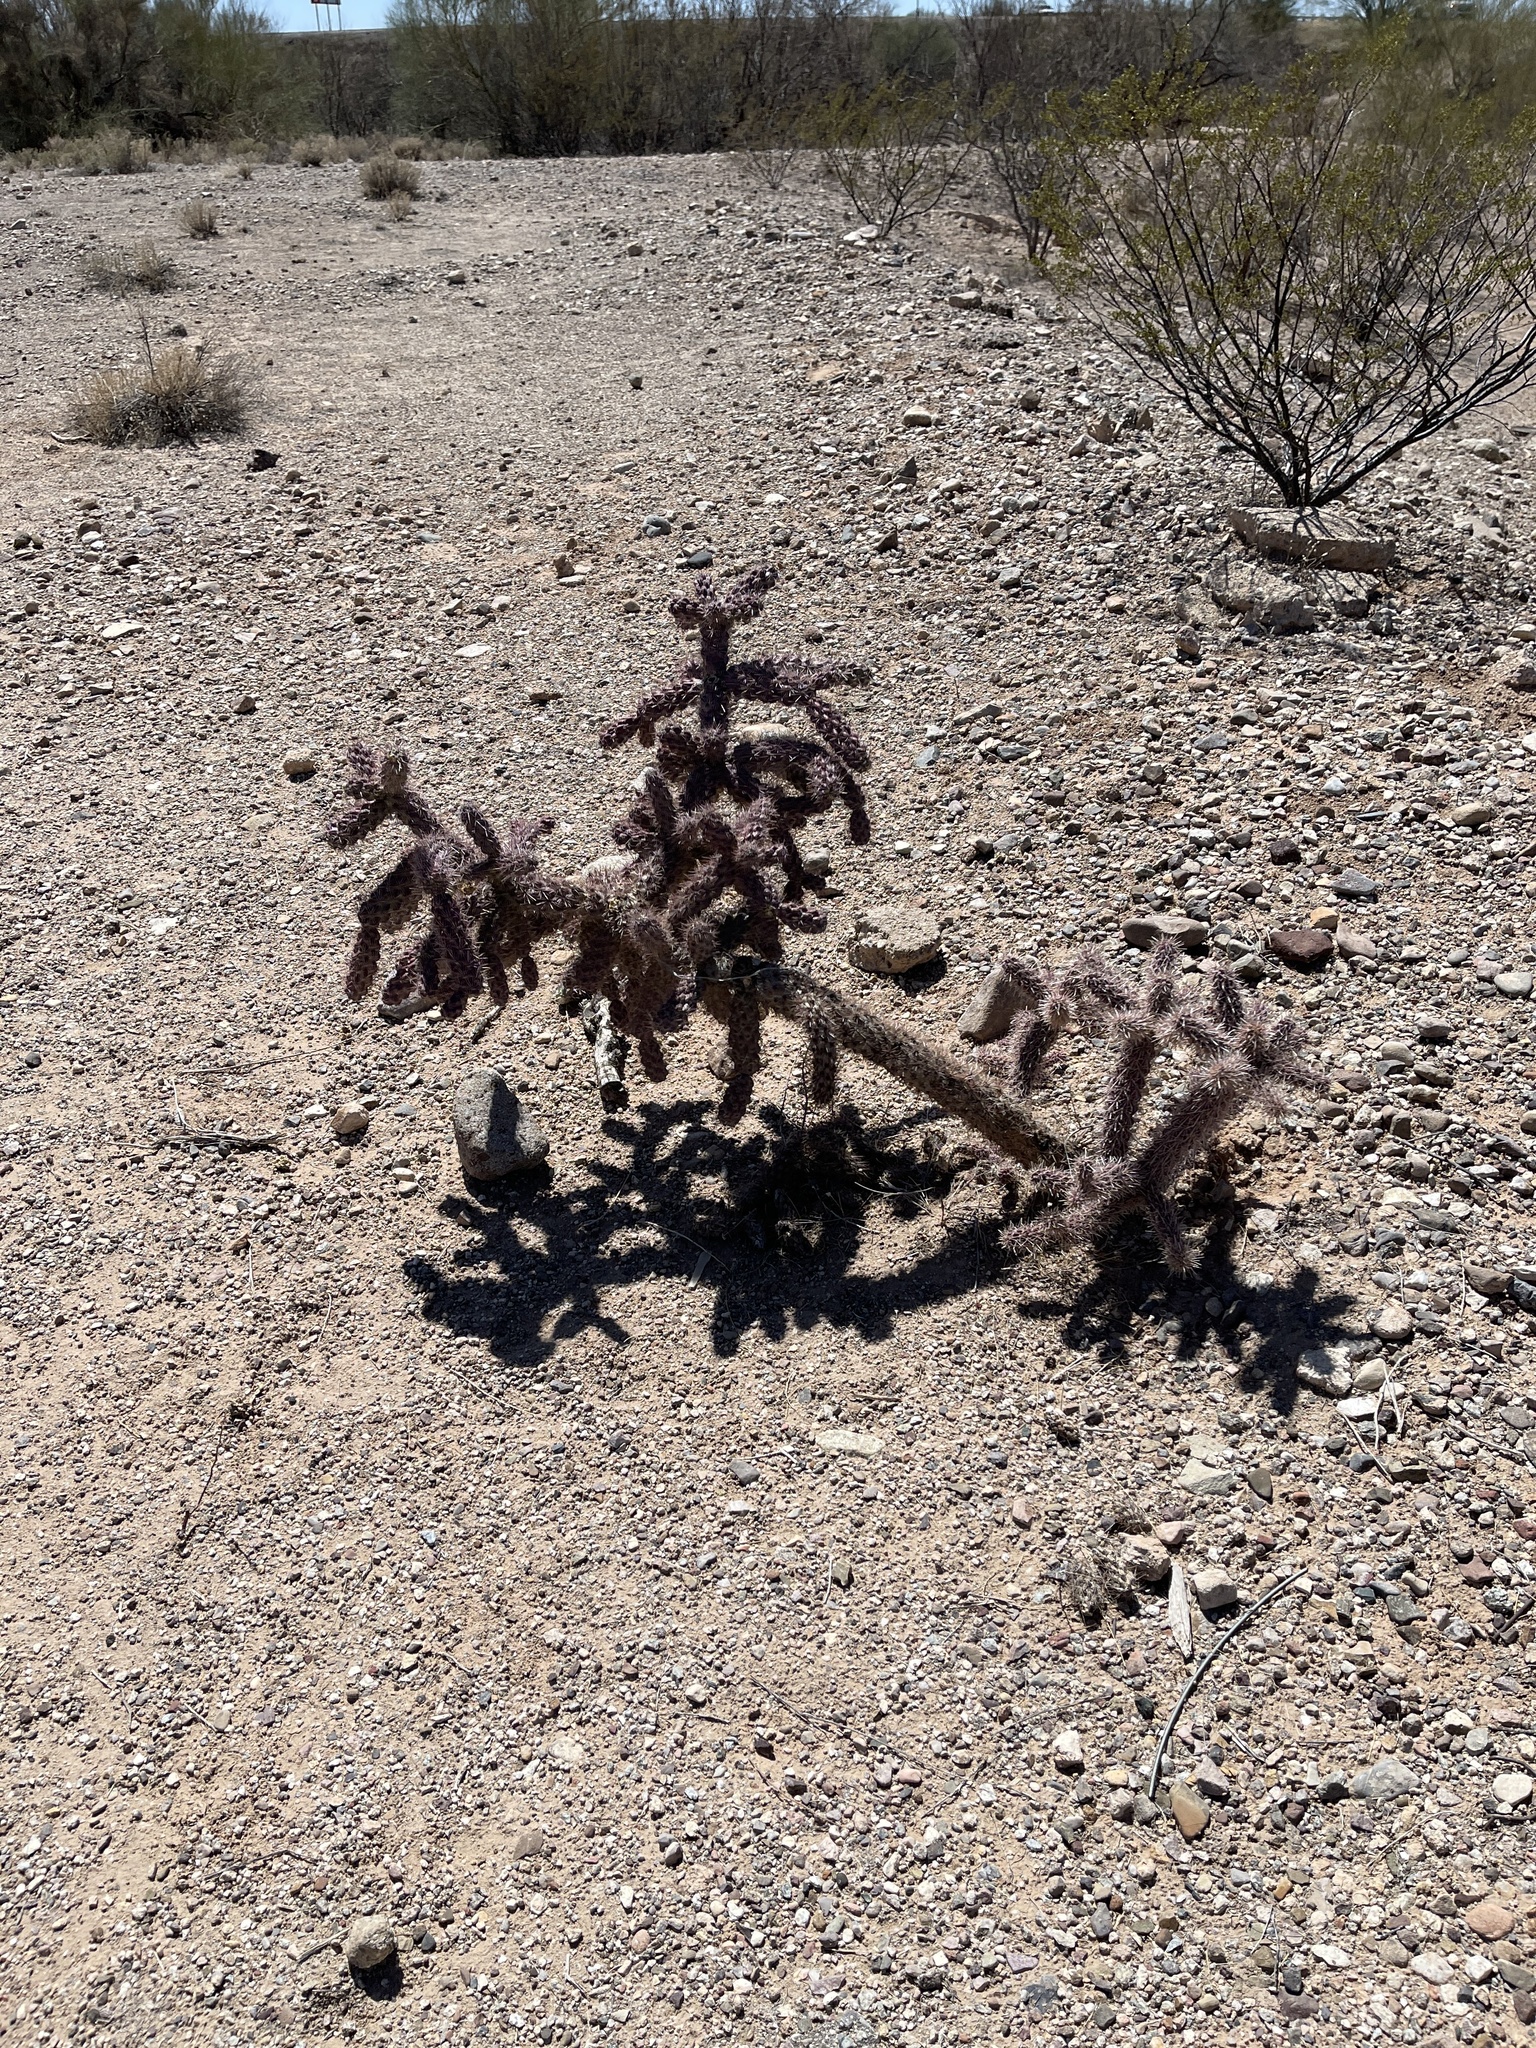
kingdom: Plantae
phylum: Tracheophyta
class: Magnoliopsida
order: Caryophyllales
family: Cactaceae
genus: Cylindropuntia
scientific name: Cylindropuntia imbricata
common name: Candelabrum cactus
